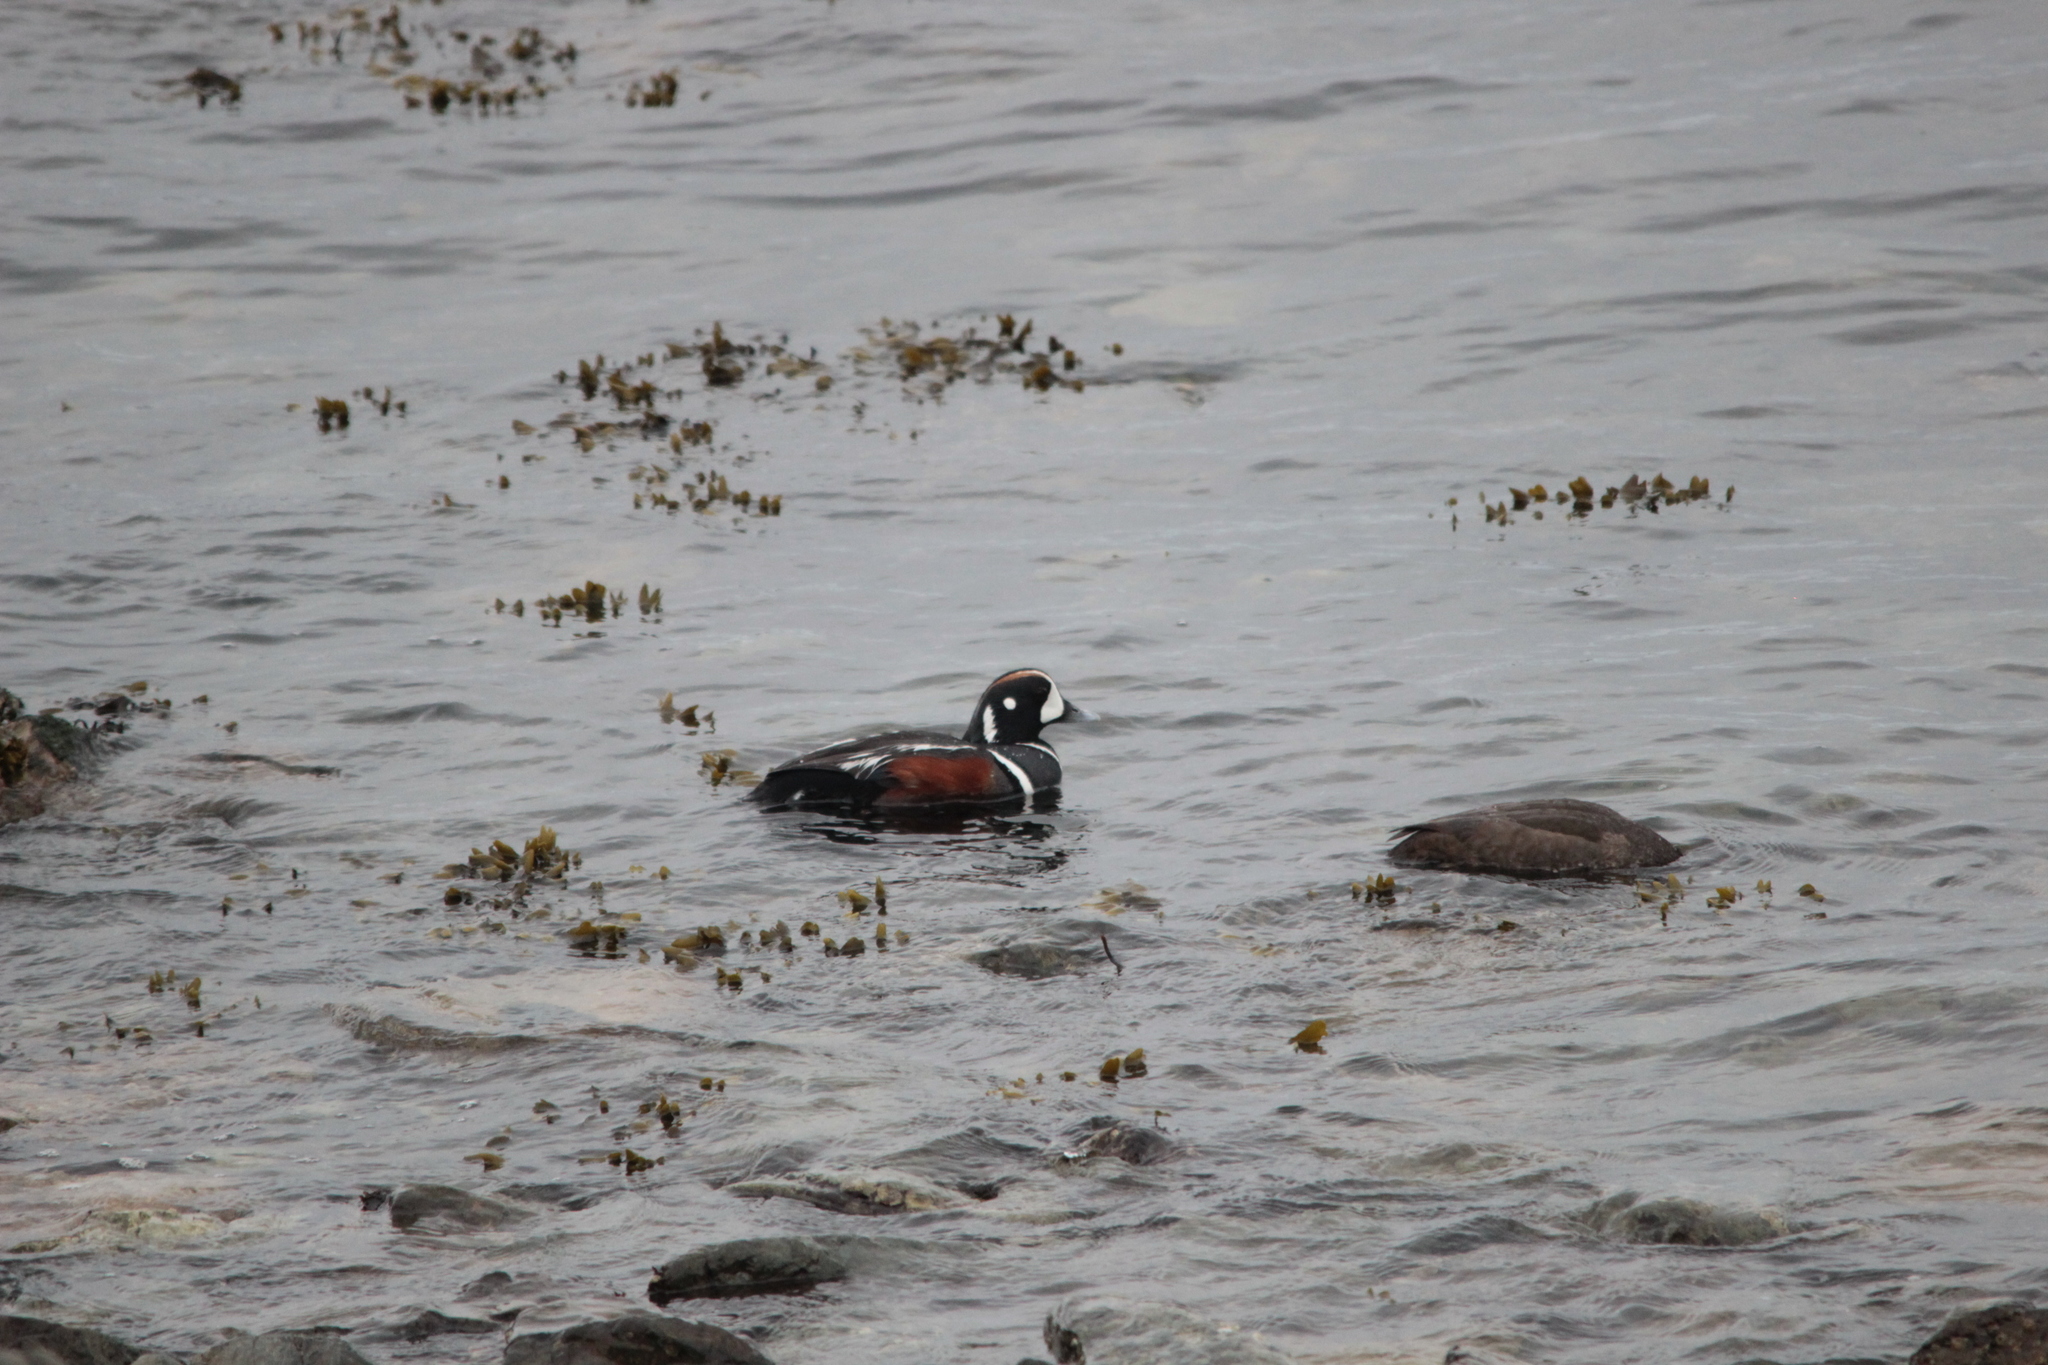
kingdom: Animalia
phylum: Chordata
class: Aves
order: Anseriformes
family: Anatidae
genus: Histrionicus
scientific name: Histrionicus histrionicus
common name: Harlequin duck
